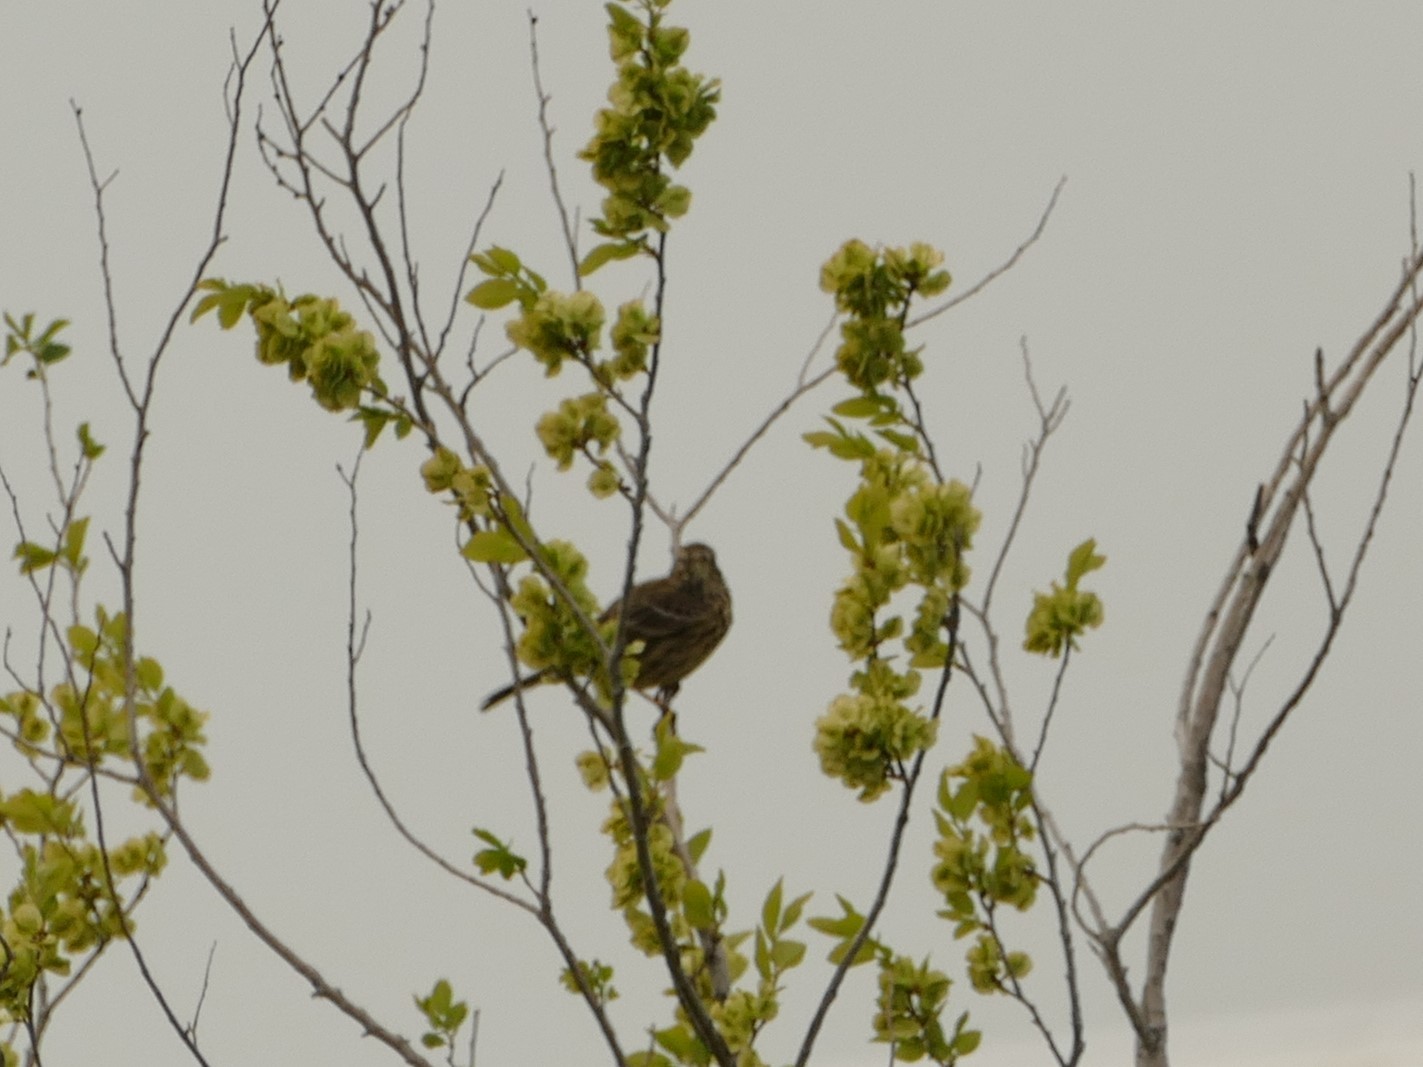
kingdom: Animalia
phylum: Chordata
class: Aves
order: Passeriformes
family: Emberizidae
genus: Emberiza
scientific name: Emberiza calandra
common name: Corn bunting
